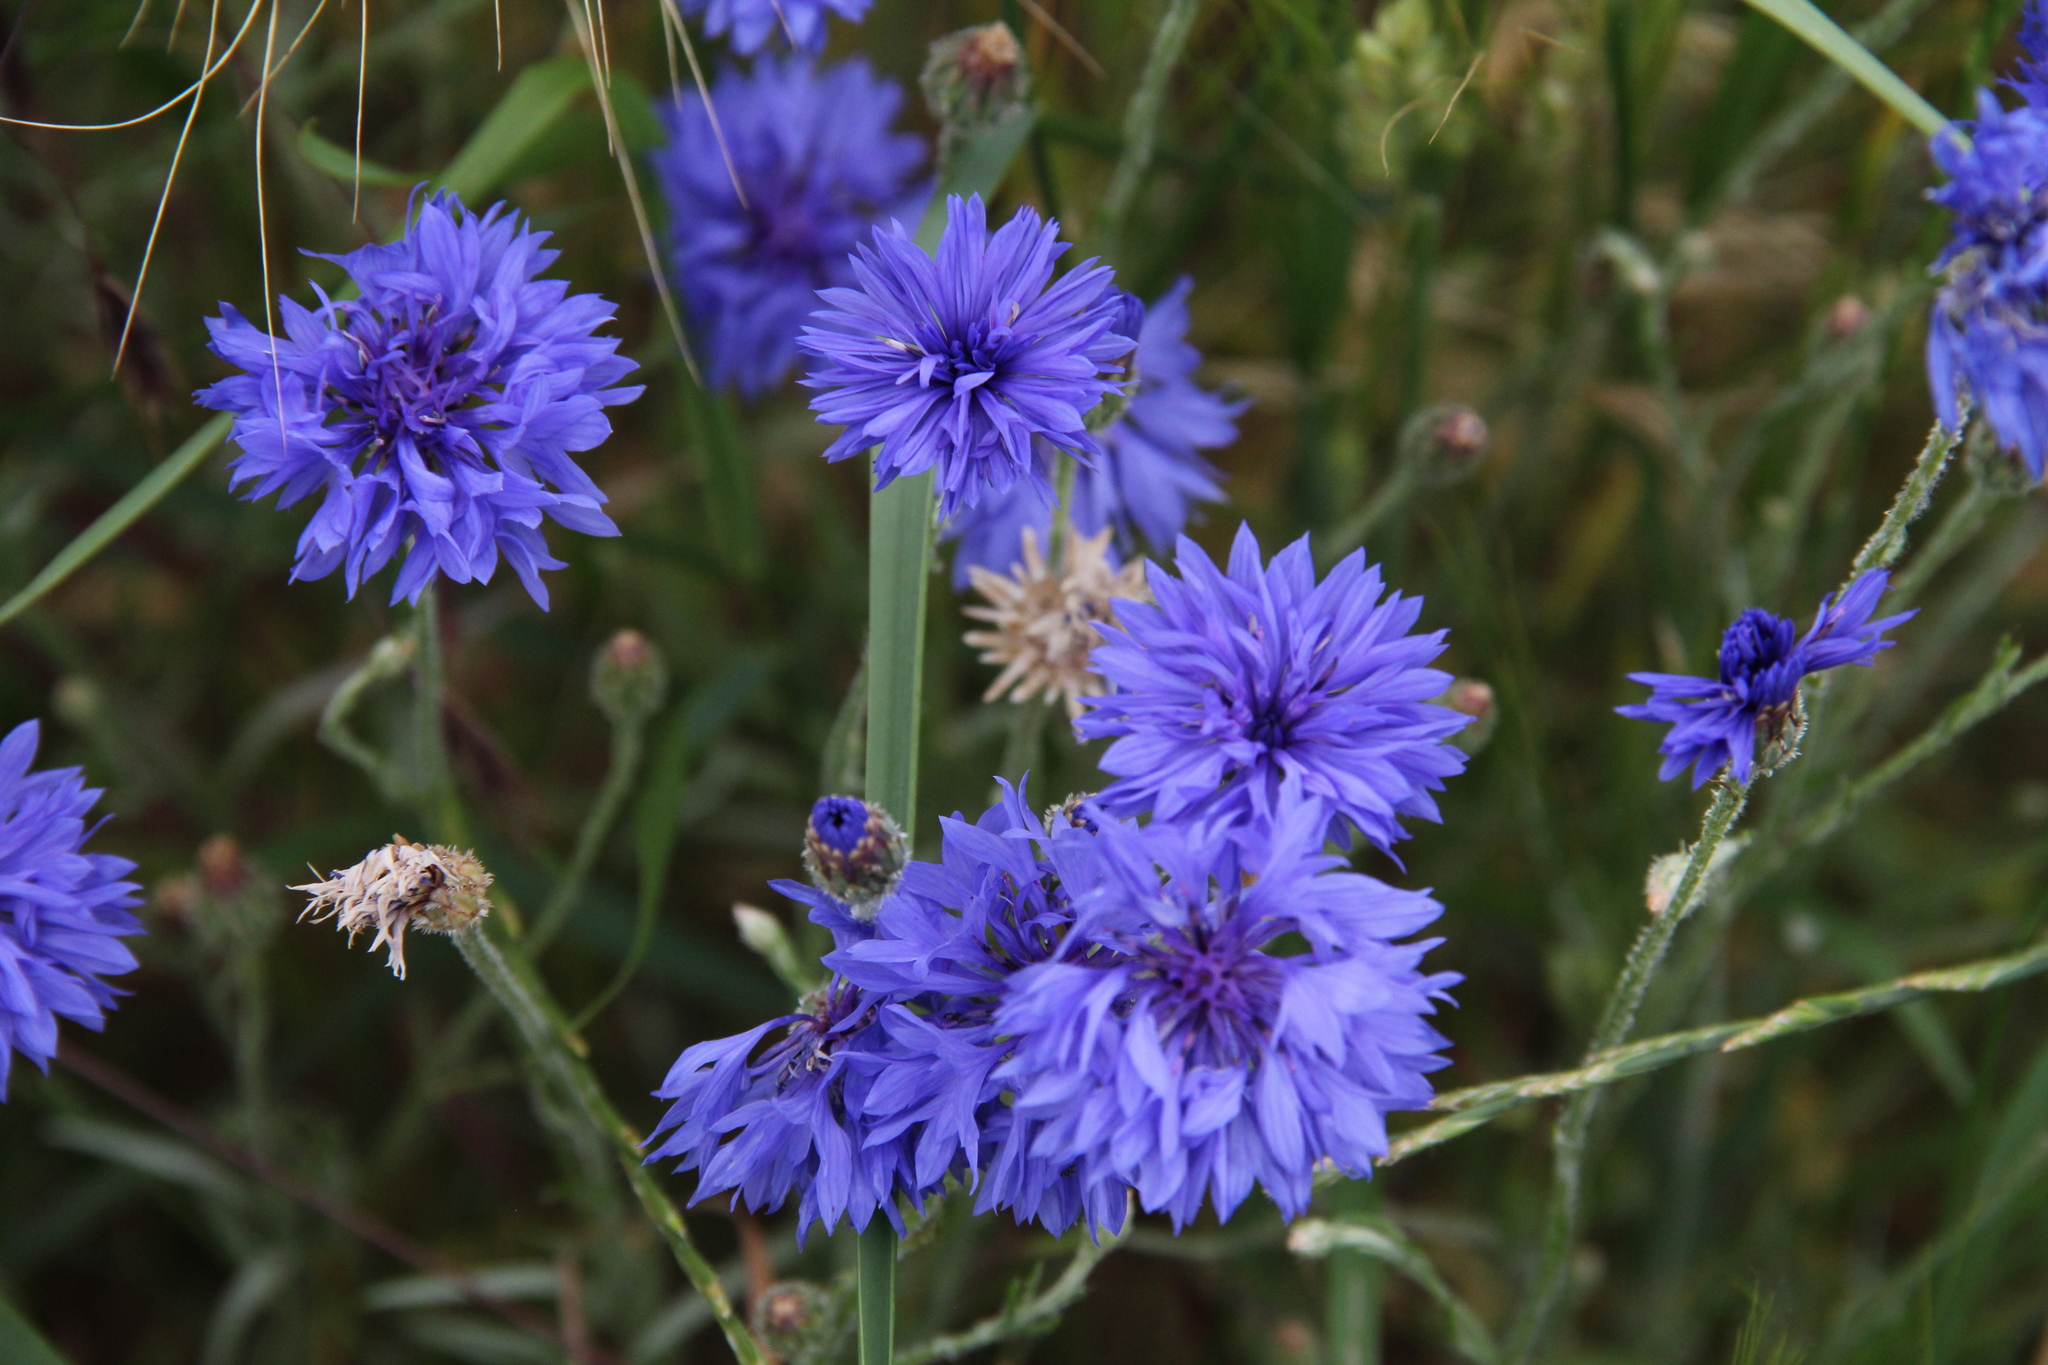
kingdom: Plantae
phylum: Tracheophyta
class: Magnoliopsida
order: Asterales
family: Asteraceae
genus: Centaurea
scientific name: Centaurea cyanus
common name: Cornflower
